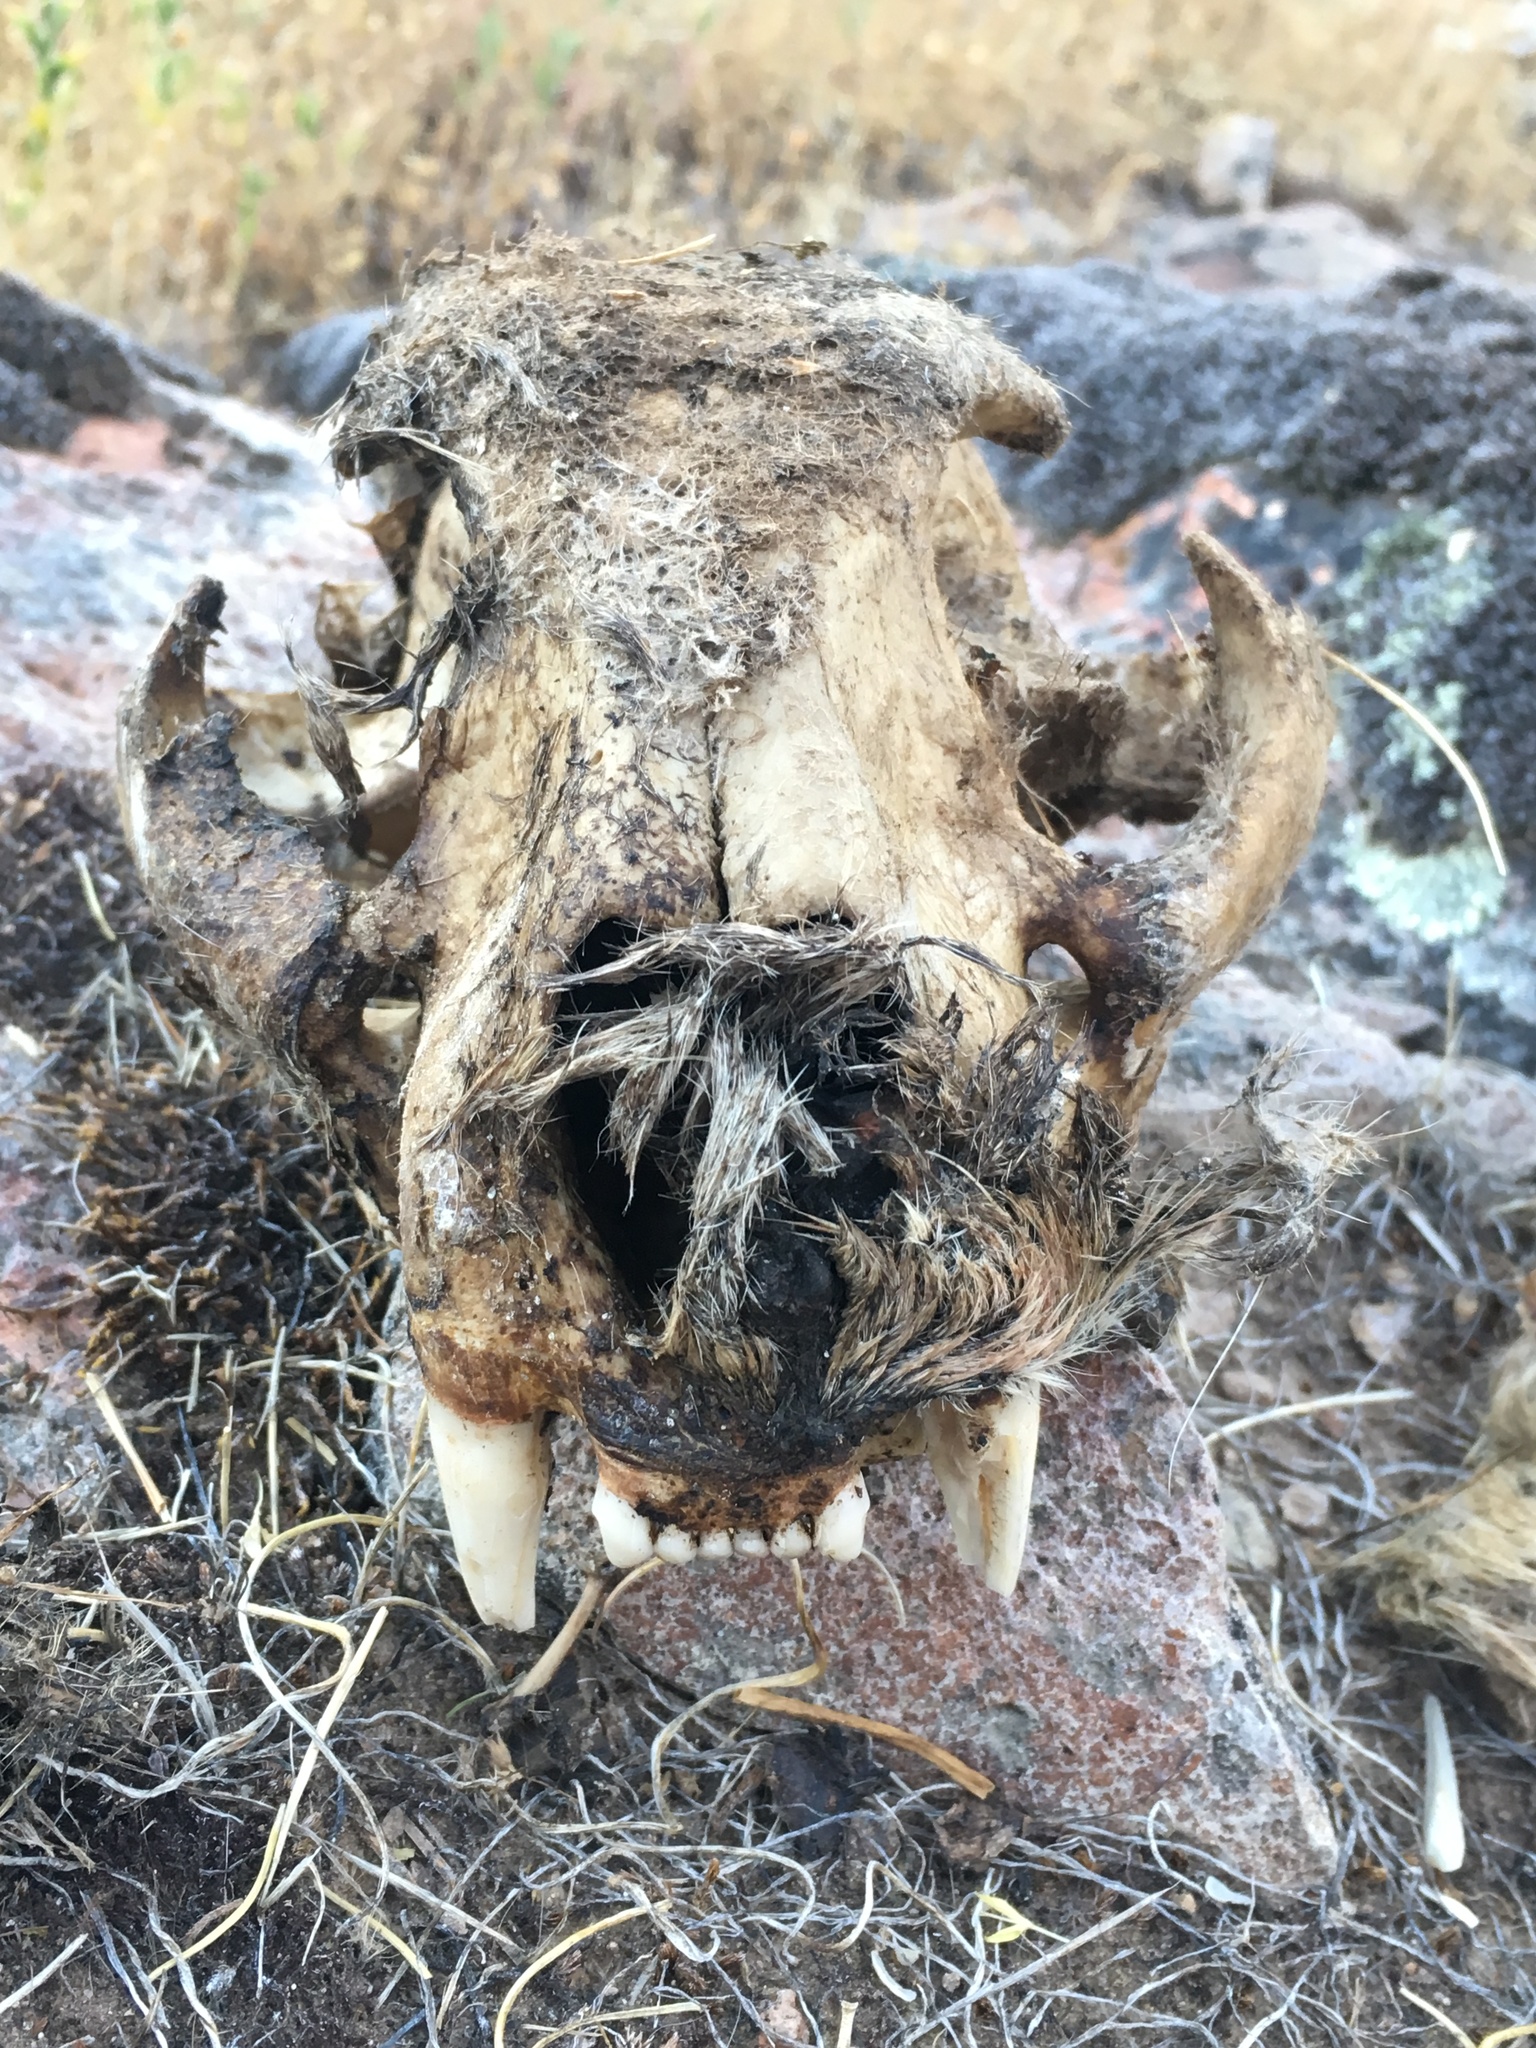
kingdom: Animalia
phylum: Chordata
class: Mammalia
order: Carnivora
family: Felidae
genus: Puma
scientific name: Puma concolor
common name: Puma
